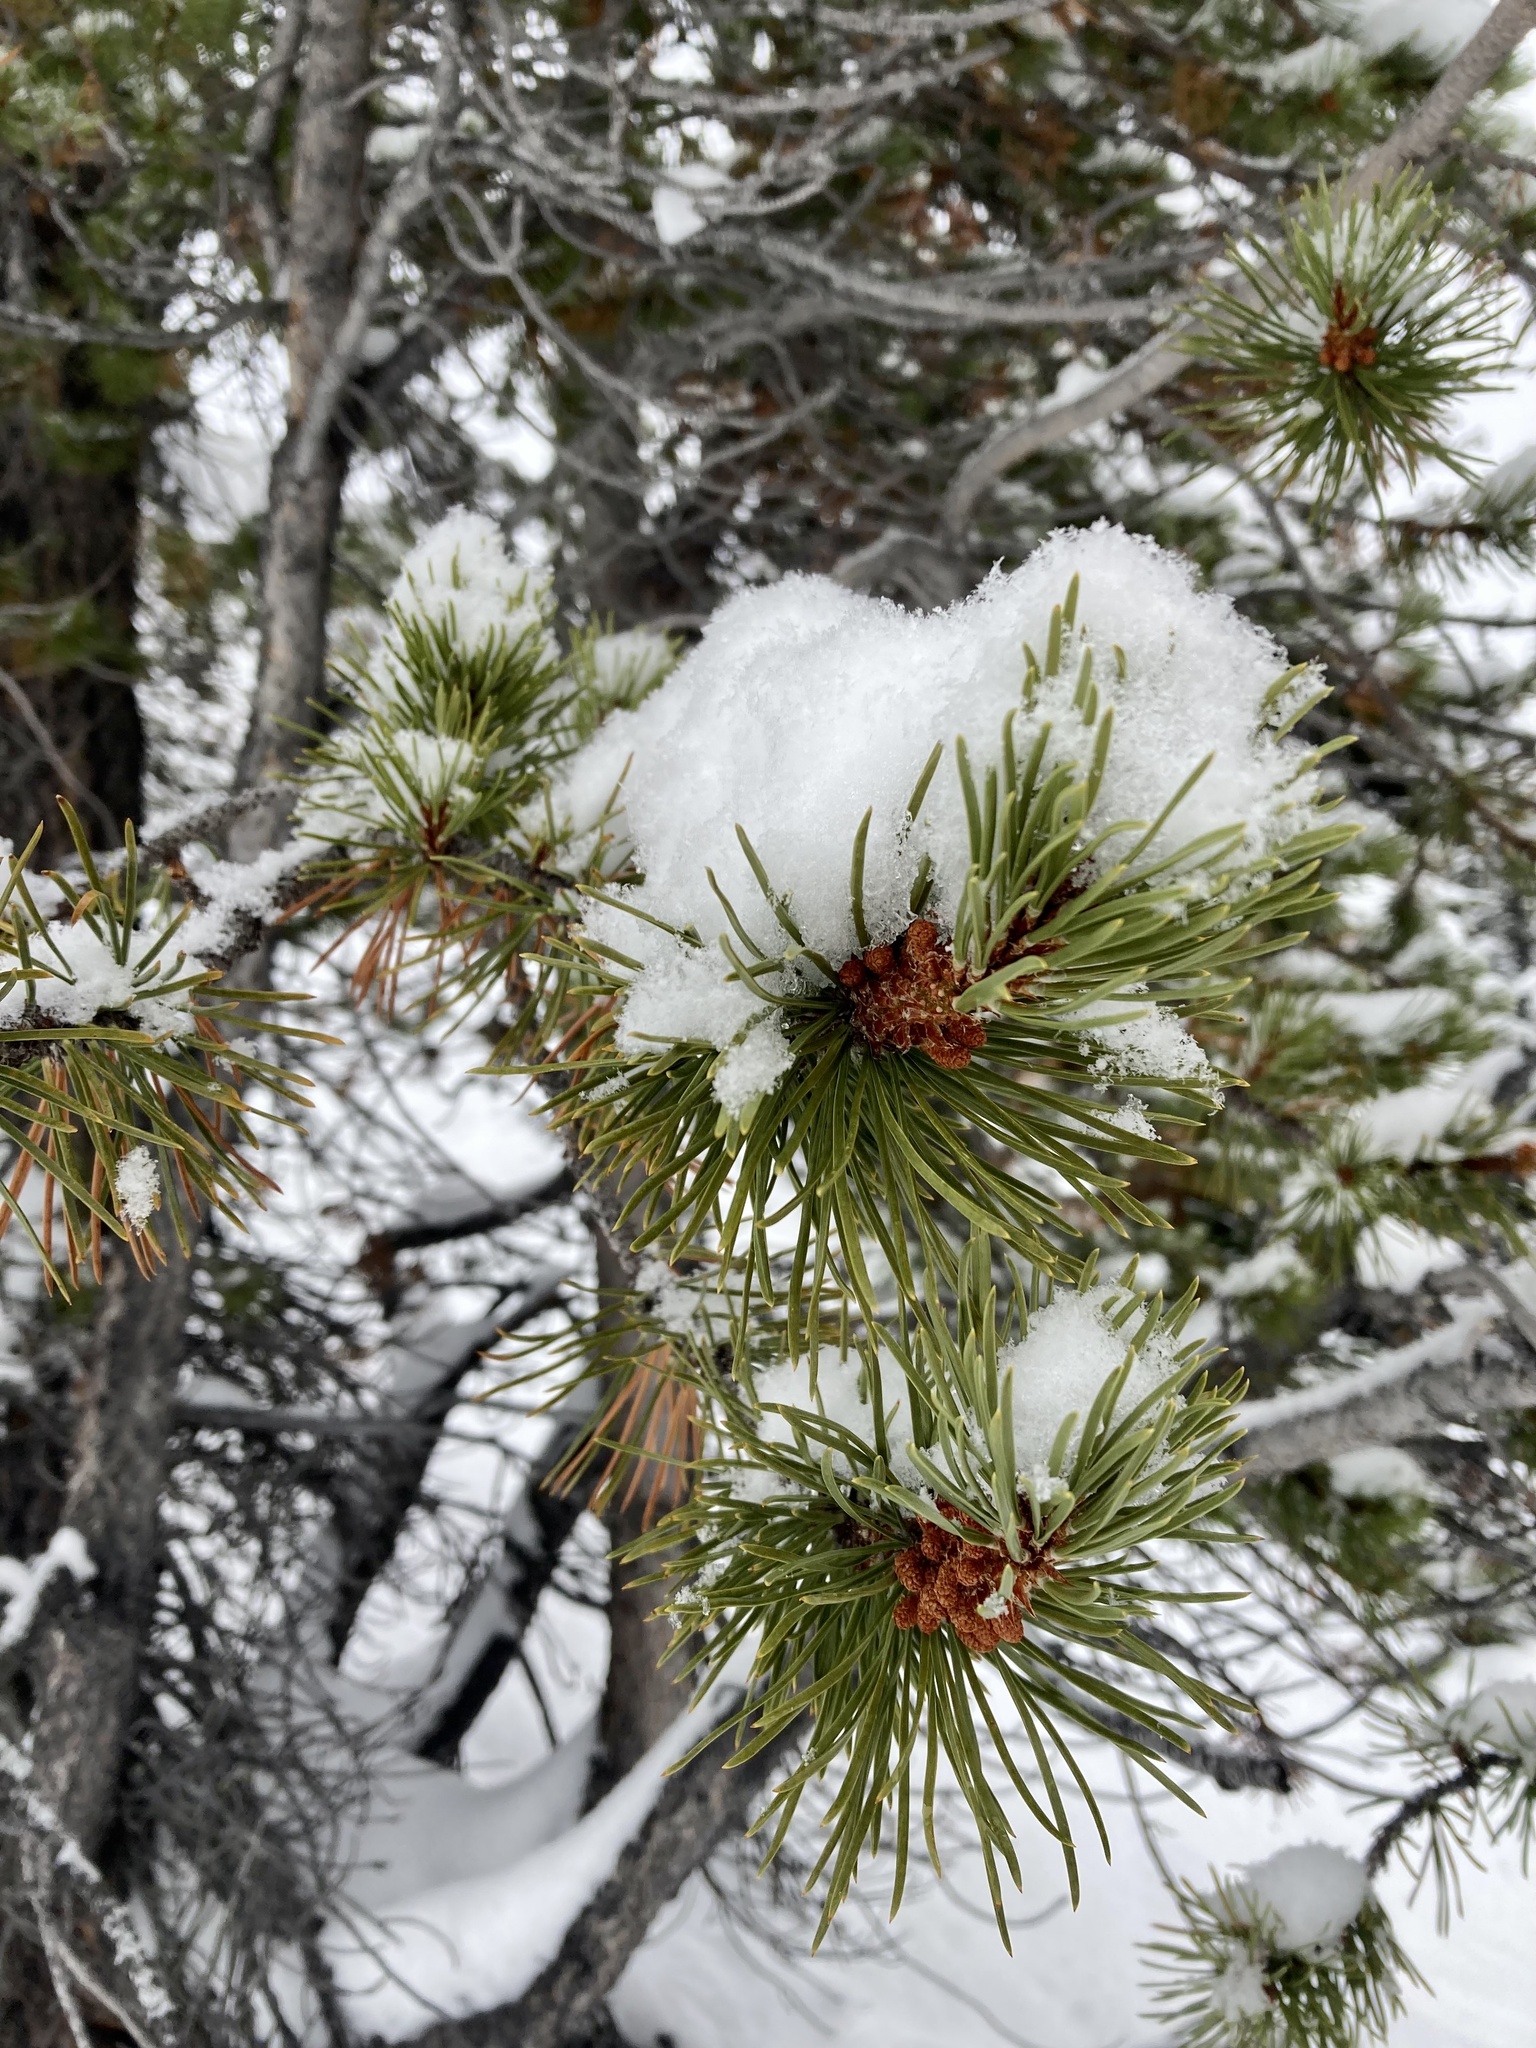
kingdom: Plantae
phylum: Tracheophyta
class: Pinopsida
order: Pinales
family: Pinaceae
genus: Pinus
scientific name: Pinus contorta
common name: Lodgepole pine
